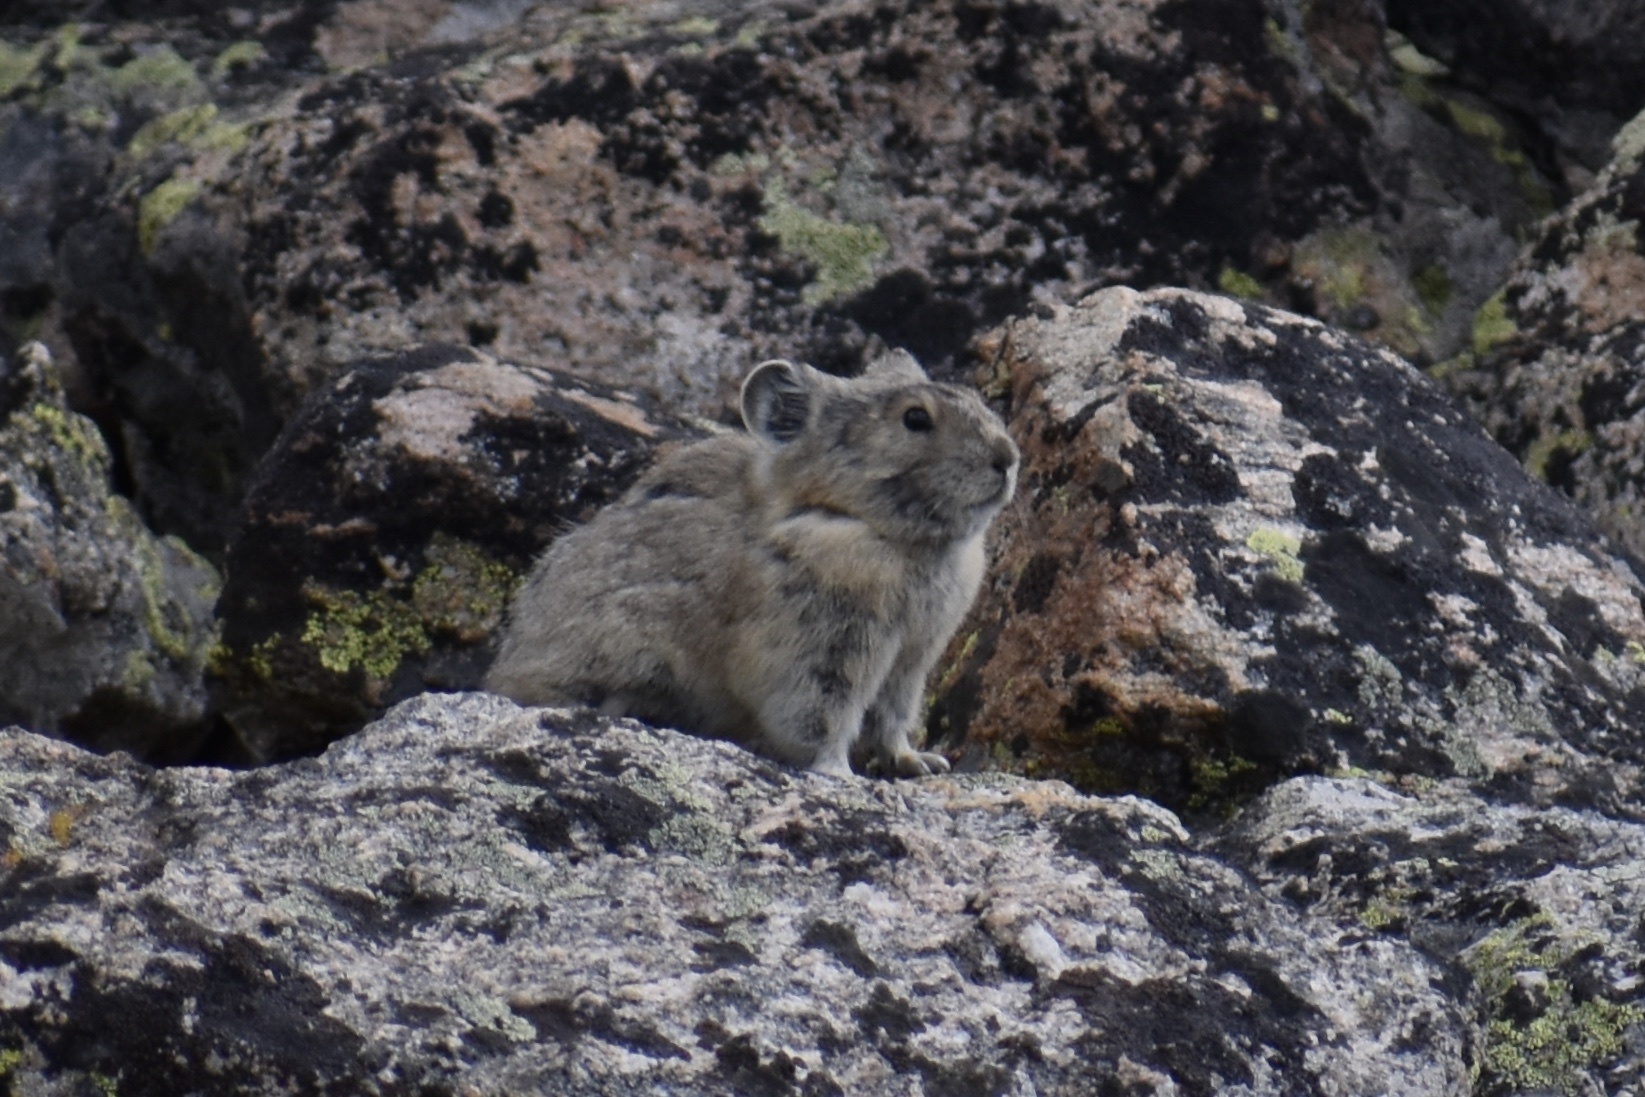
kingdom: Animalia
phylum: Chordata
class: Mammalia
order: Lagomorpha
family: Ochotonidae
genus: Ochotona
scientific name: Ochotona princeps
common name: American pika
